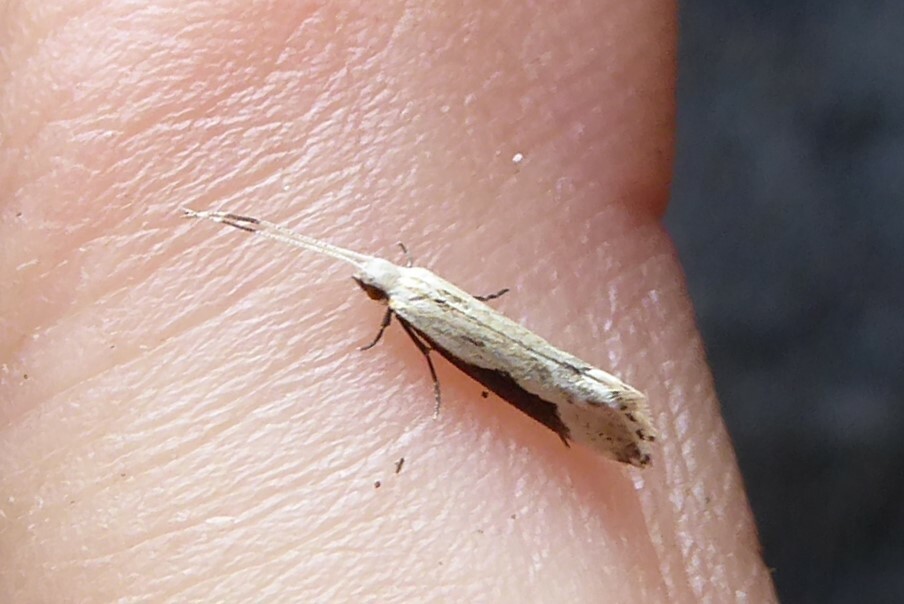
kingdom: Animalia
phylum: Arthropoda
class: Insecta
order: Lepidoptera
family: Tineidae
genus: Sagephora
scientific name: Sagephora phortegella
